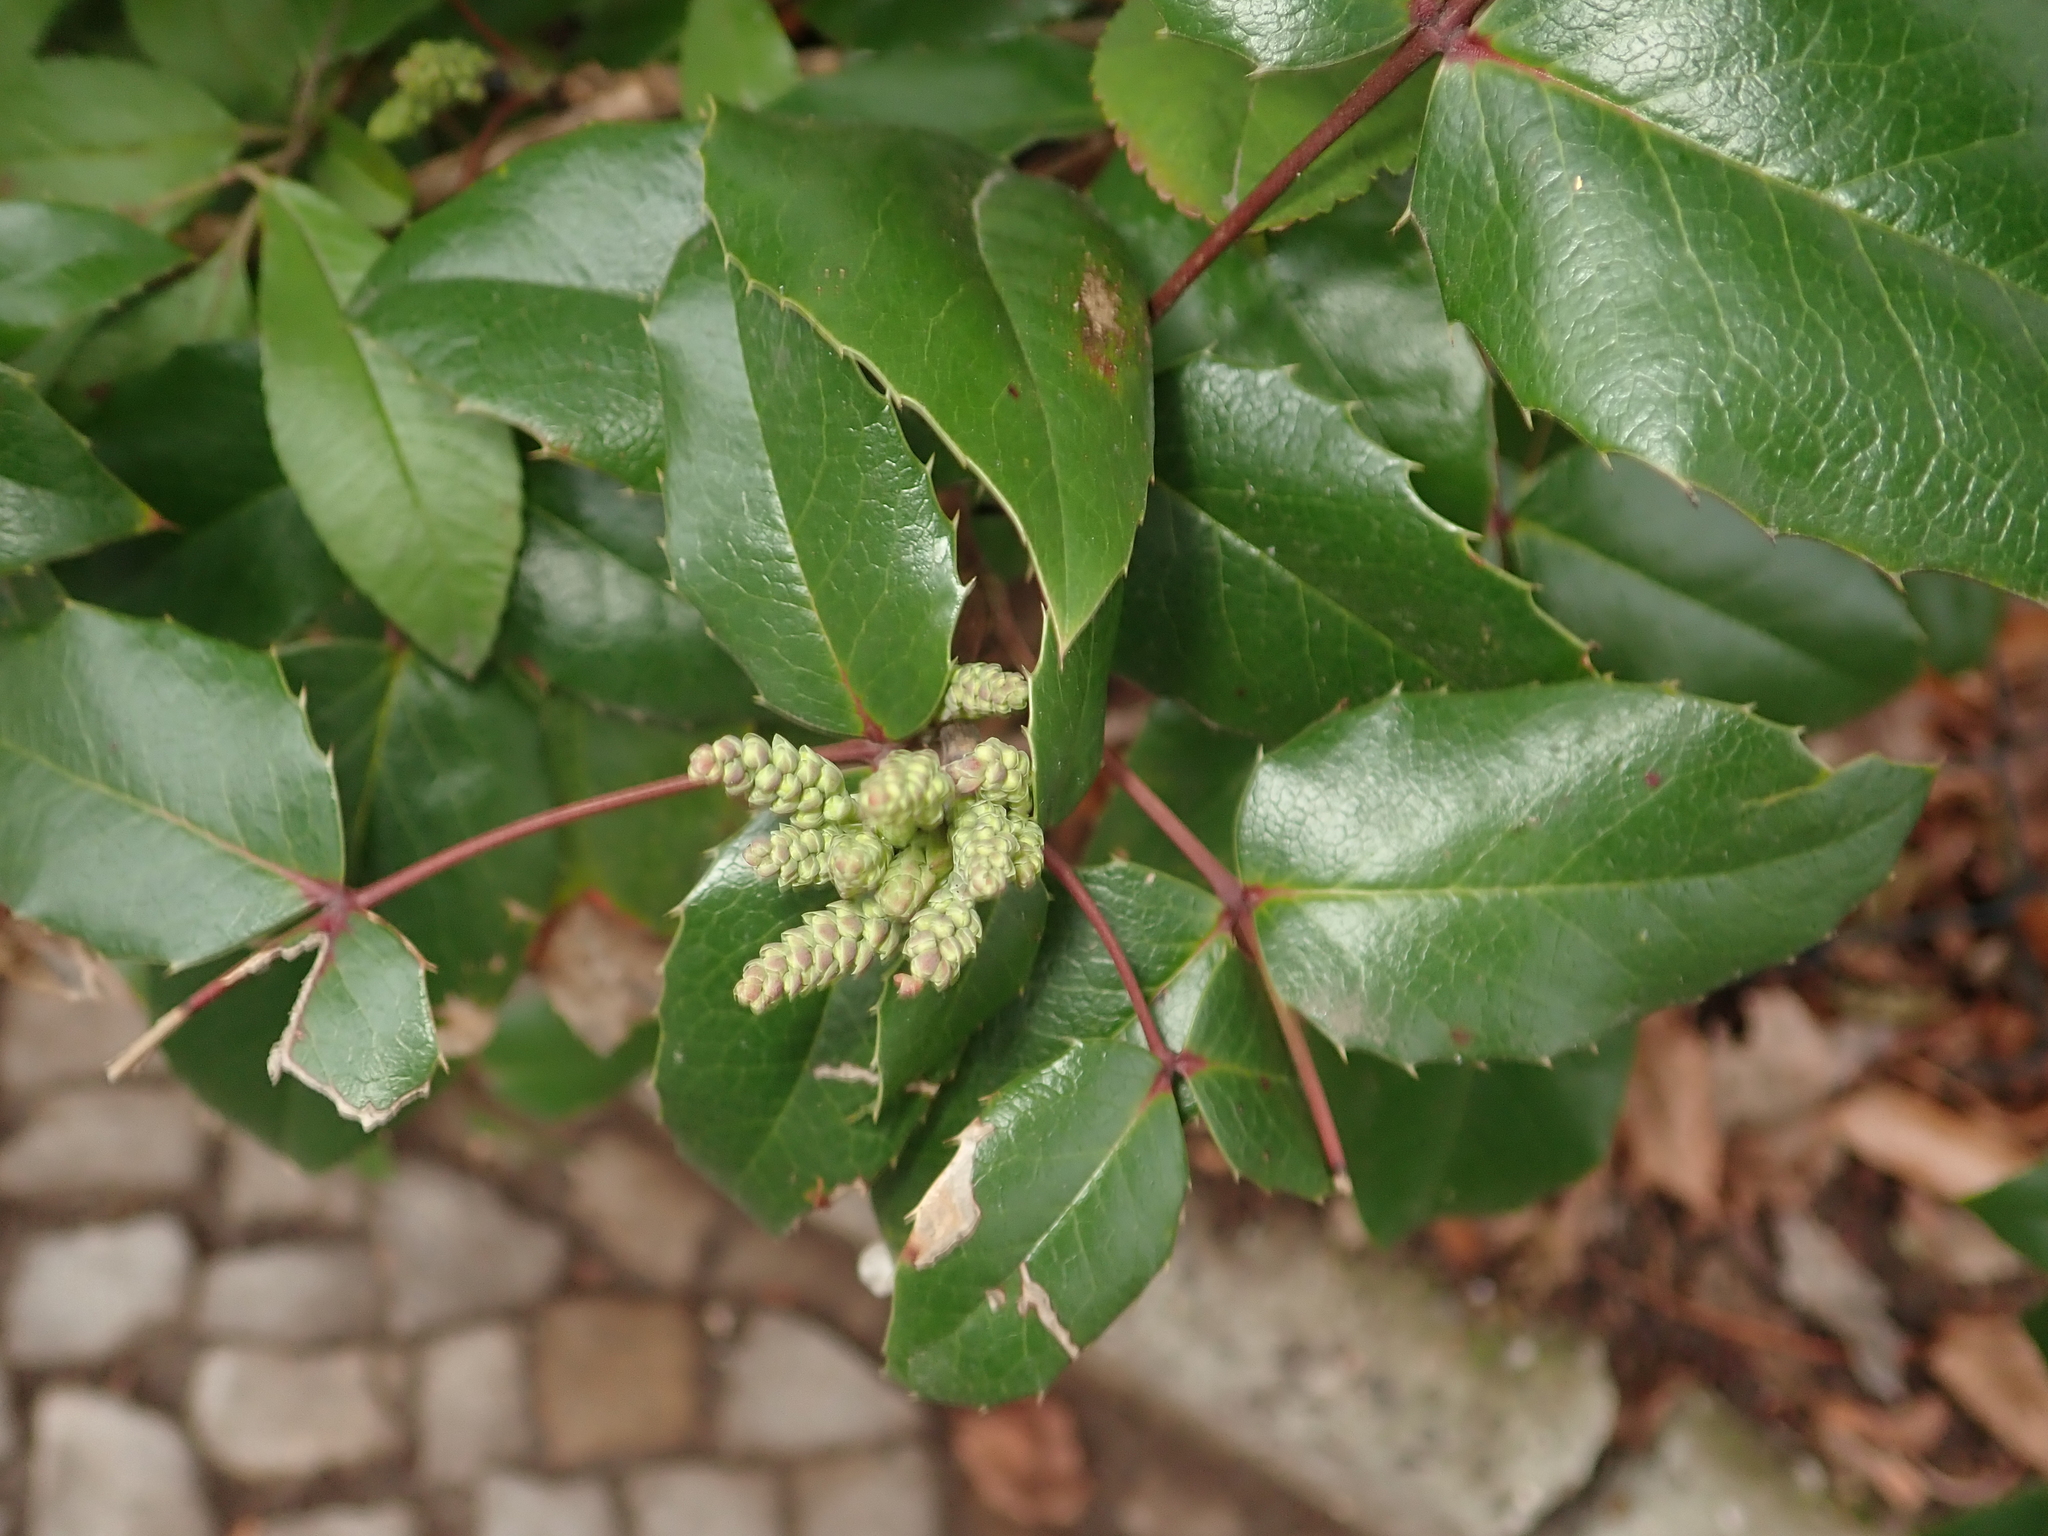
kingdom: Plantae
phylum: Tracheophyta
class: Magnoliopsida
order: Ranunculales
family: Berberidaceae
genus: Mahonia
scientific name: Mahonia aquifolium
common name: Oregon-grape
